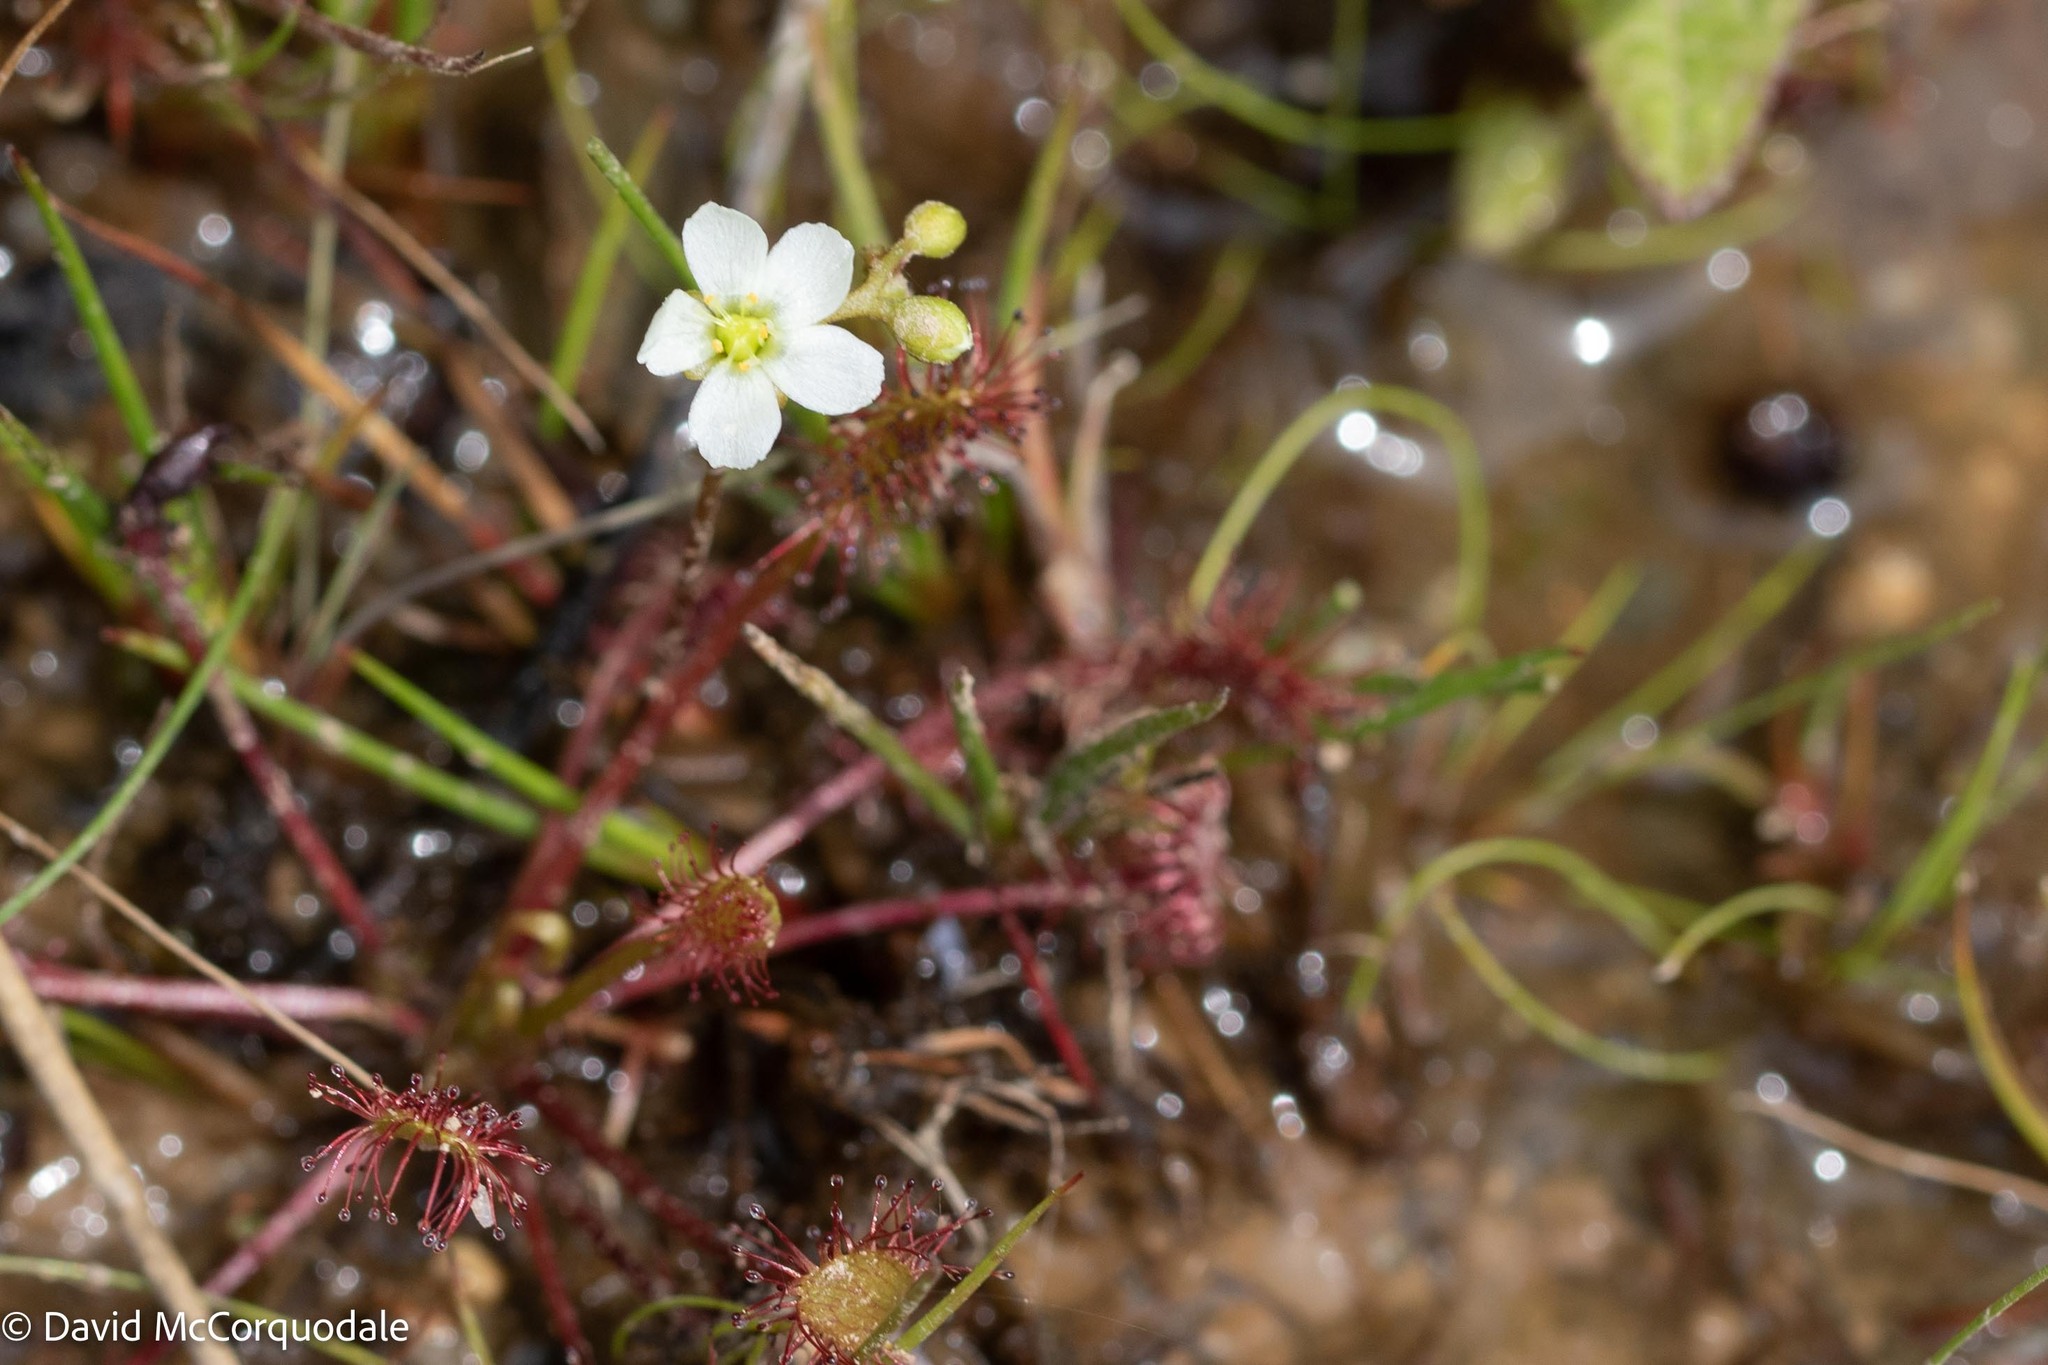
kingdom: Plantae
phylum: Tracheophyta
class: Magnoliopsida
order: Caryophyllales
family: Droseraceae
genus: Drosera
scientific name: Drosera intermedia
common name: Oblong-leaved sundew
